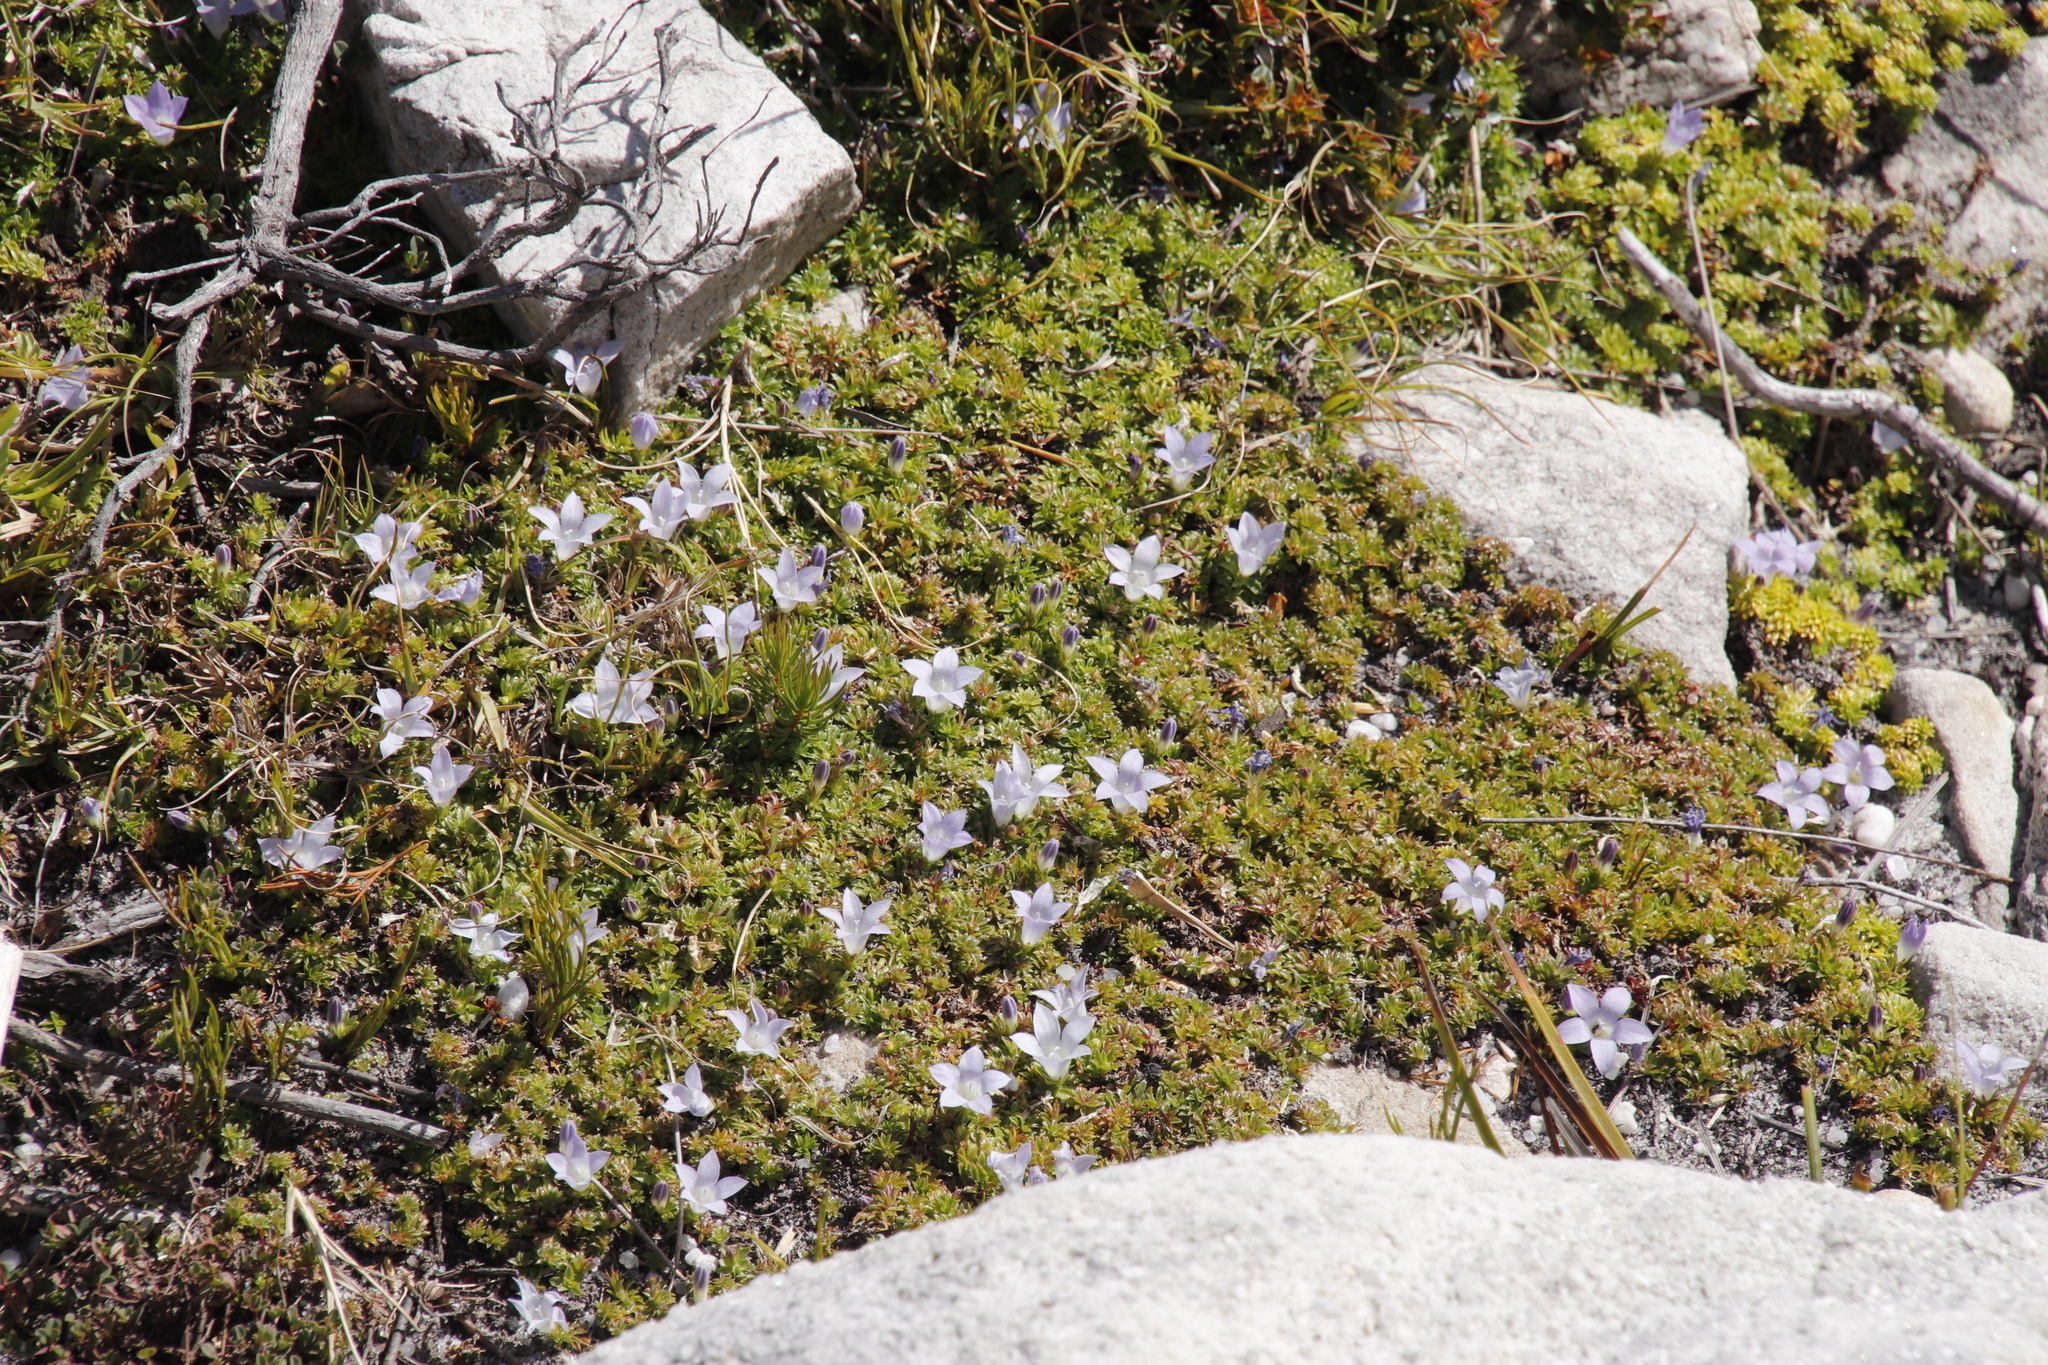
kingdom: Plantae
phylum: Tracheophyta
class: Magnoliopsida
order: Asterales
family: Campanulaceae
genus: Roella
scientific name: Roella muscosa
